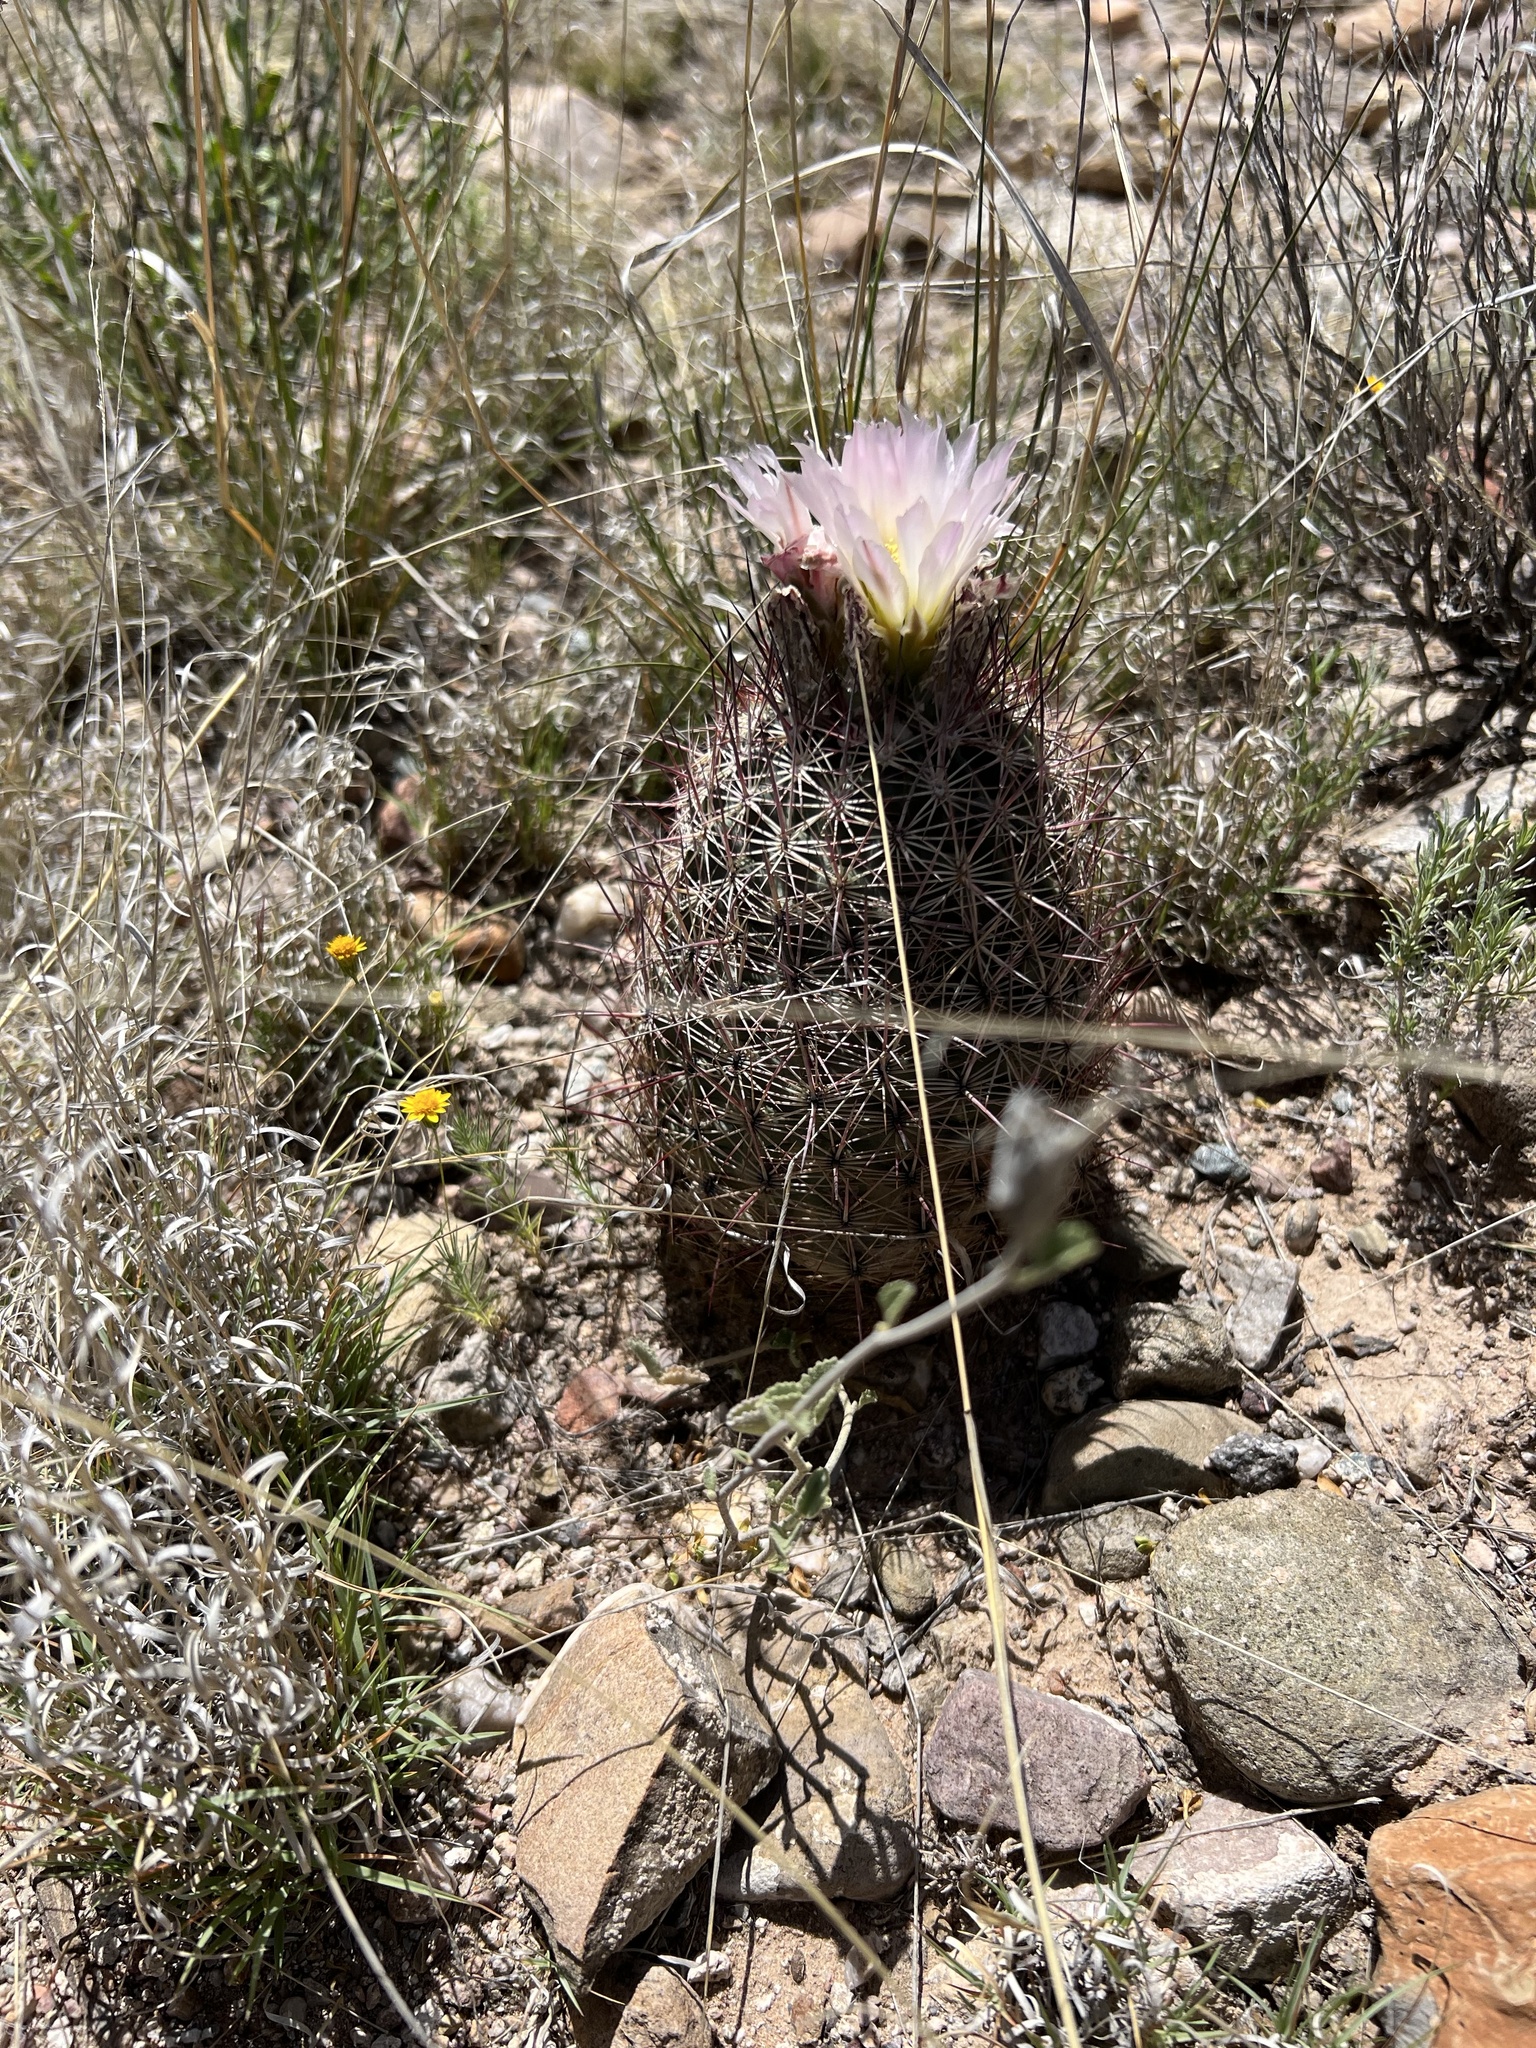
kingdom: Plantae
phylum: Tracheophyta
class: Magnoliopsida
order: Caryophyllales
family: Cactaceae
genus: Sclerocactus
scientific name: Sclerocactus johnsonii
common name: Eight-spine fishhook cactus
